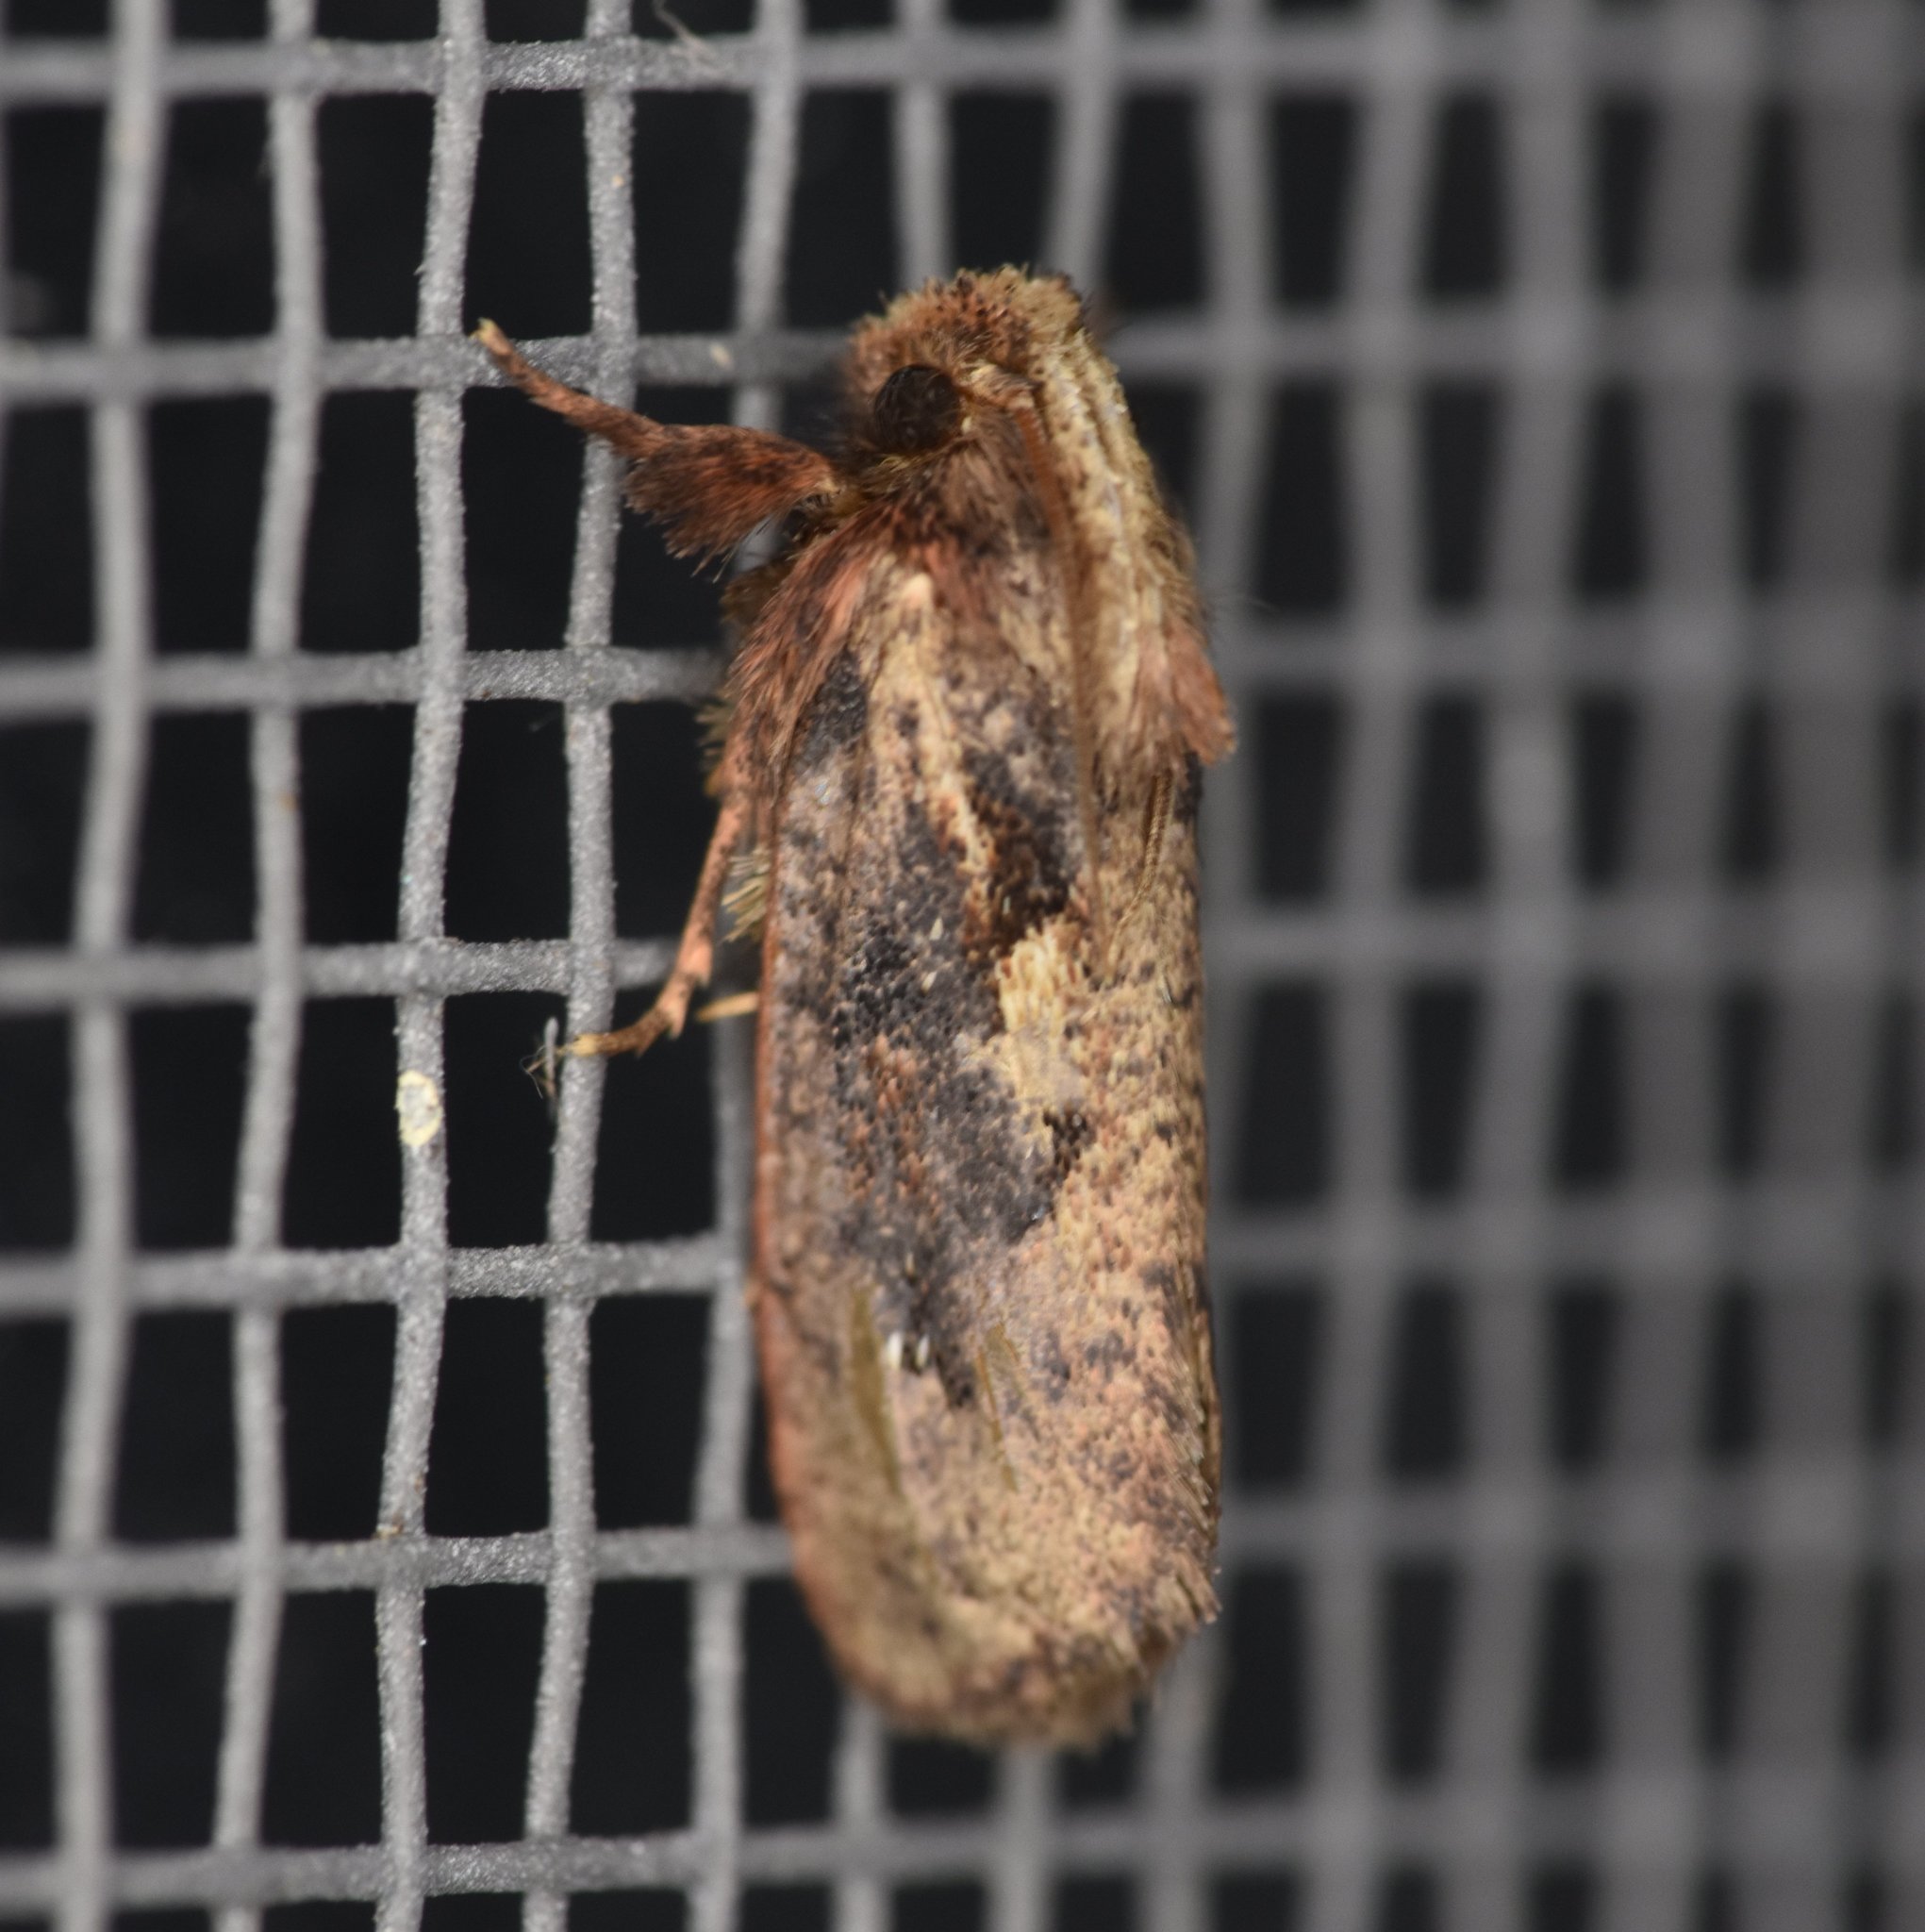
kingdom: Animalia
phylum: Arthropoda
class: Insecta
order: Lepidoptera
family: Tineidae
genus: Acrolophus
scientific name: Acrolophus walsinghami
